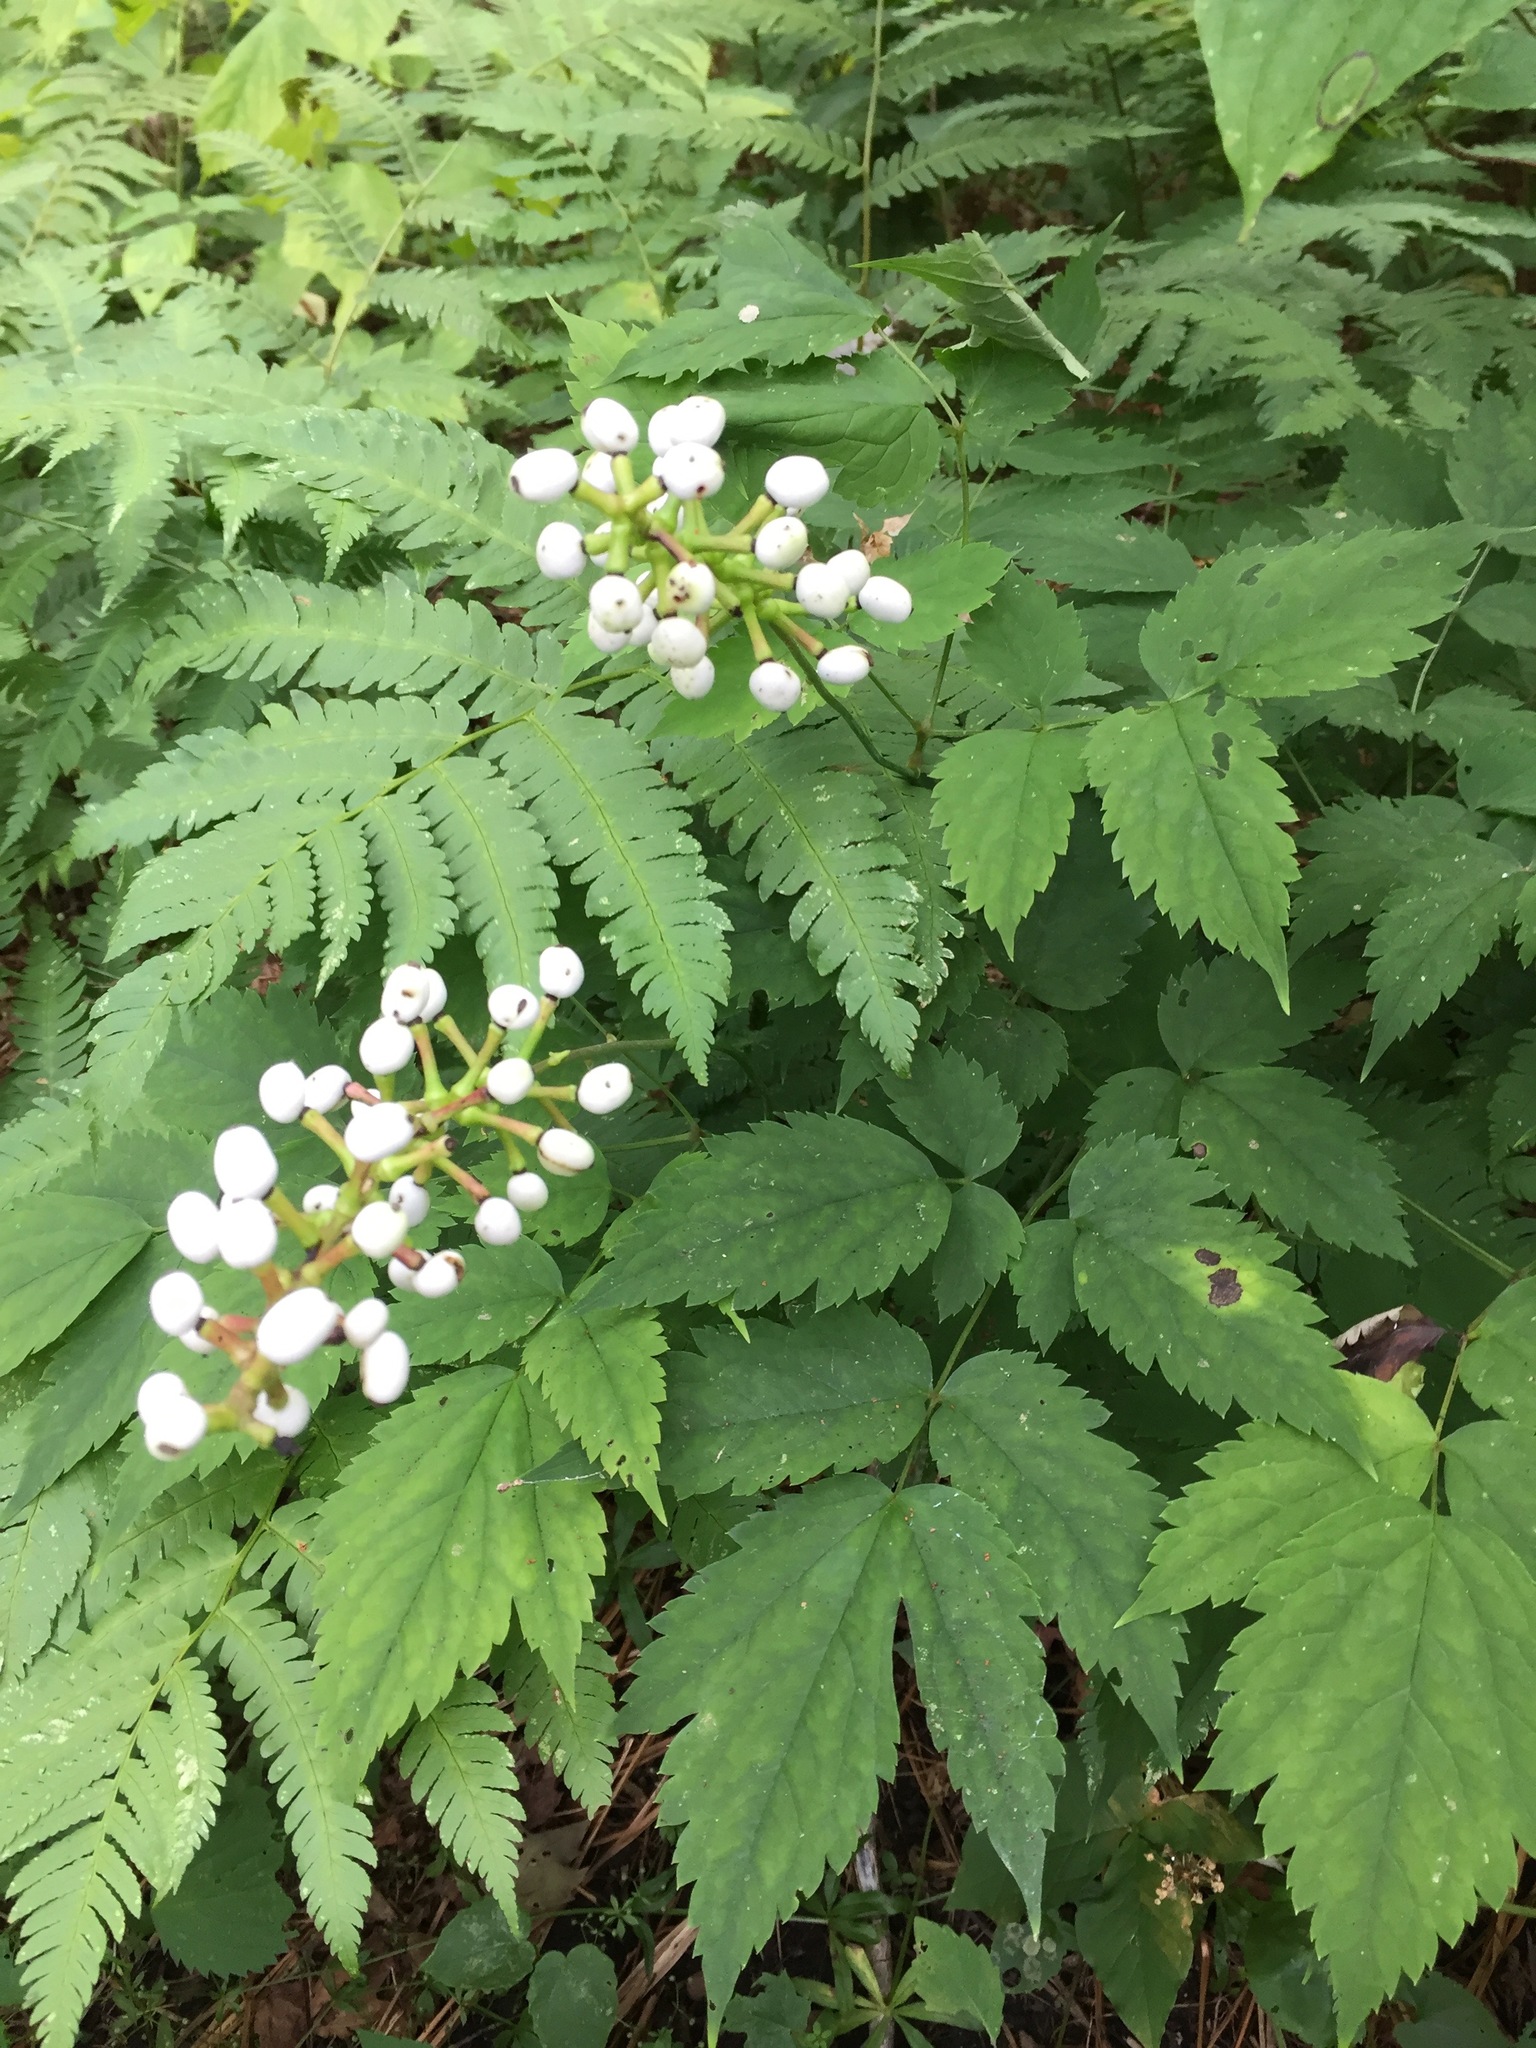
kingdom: Plantae
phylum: Tracheophyta
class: Magnoliopsida
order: Ranunculales
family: Ranunculaceae
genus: Actaea
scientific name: Actaea pachypoda
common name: Doll's-eyes
